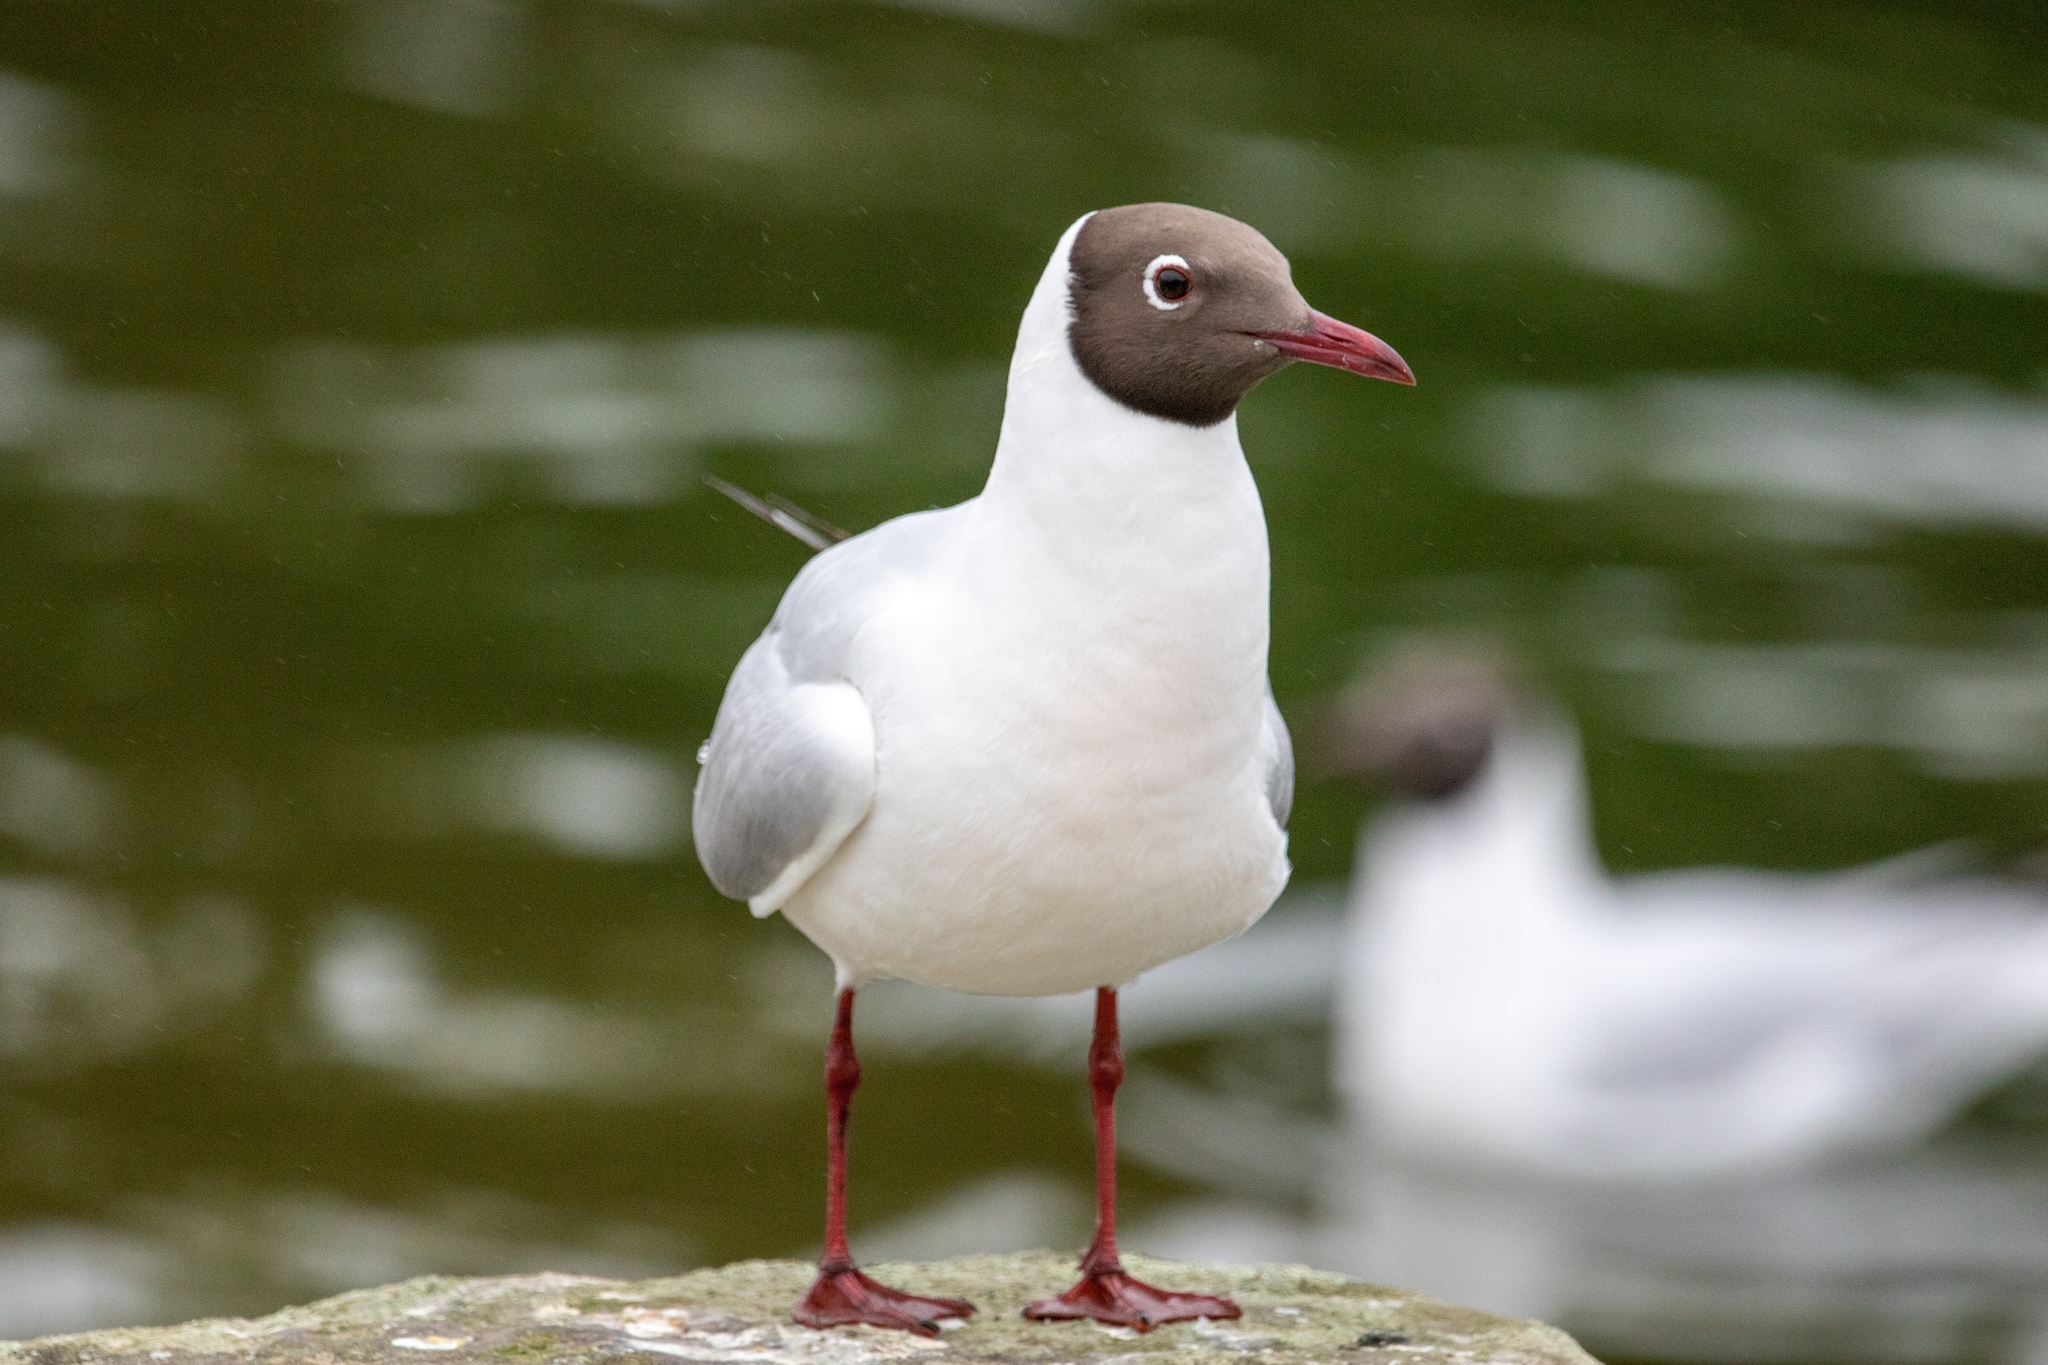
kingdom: Animalia
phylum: Chordata
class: Aves
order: Charadriiformes
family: Laridae
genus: Chroicocephalus
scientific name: Chroicocephalus ridibundus
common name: Black-headed gull
